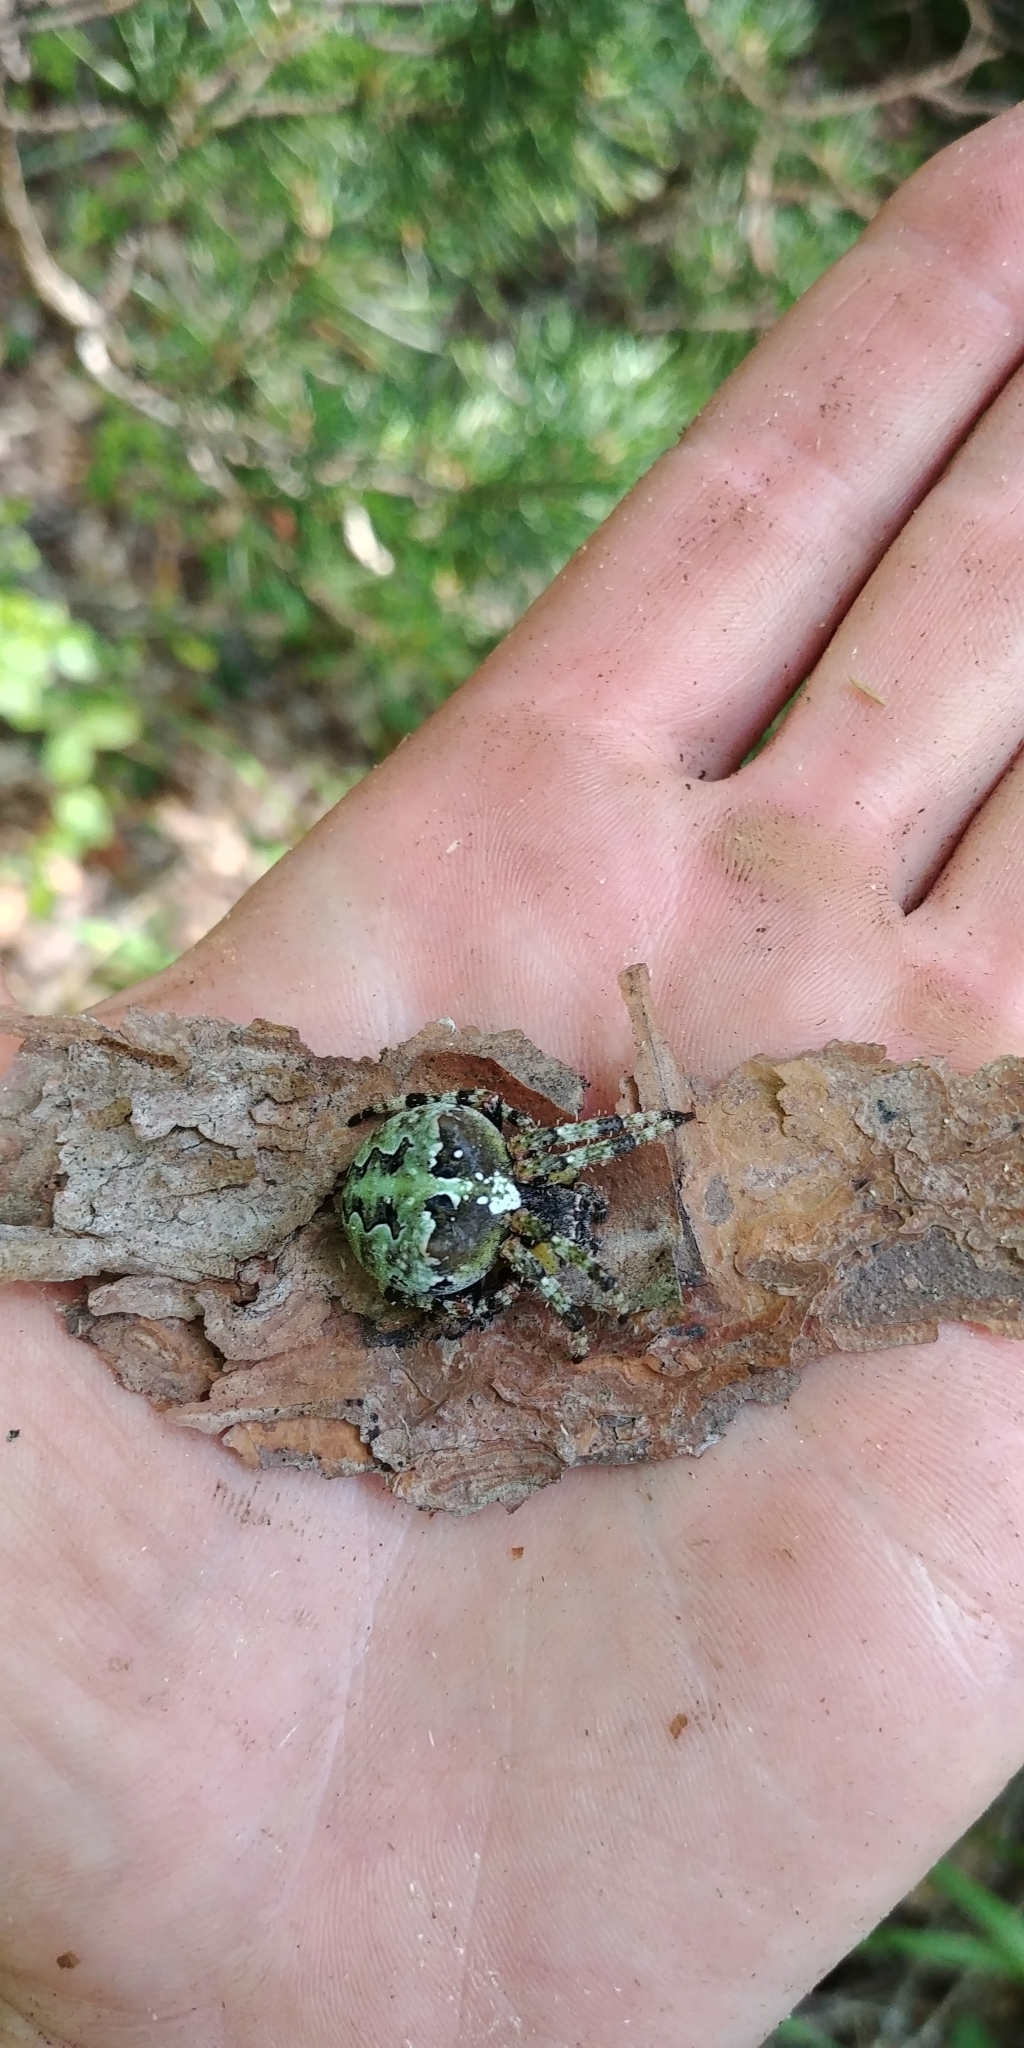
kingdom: Animalia
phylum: Arthropoda
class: Arachnida
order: Araneae
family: Araneidae
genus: Araneus
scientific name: Araneus bicentenarius
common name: Giant lichen orbweaver
